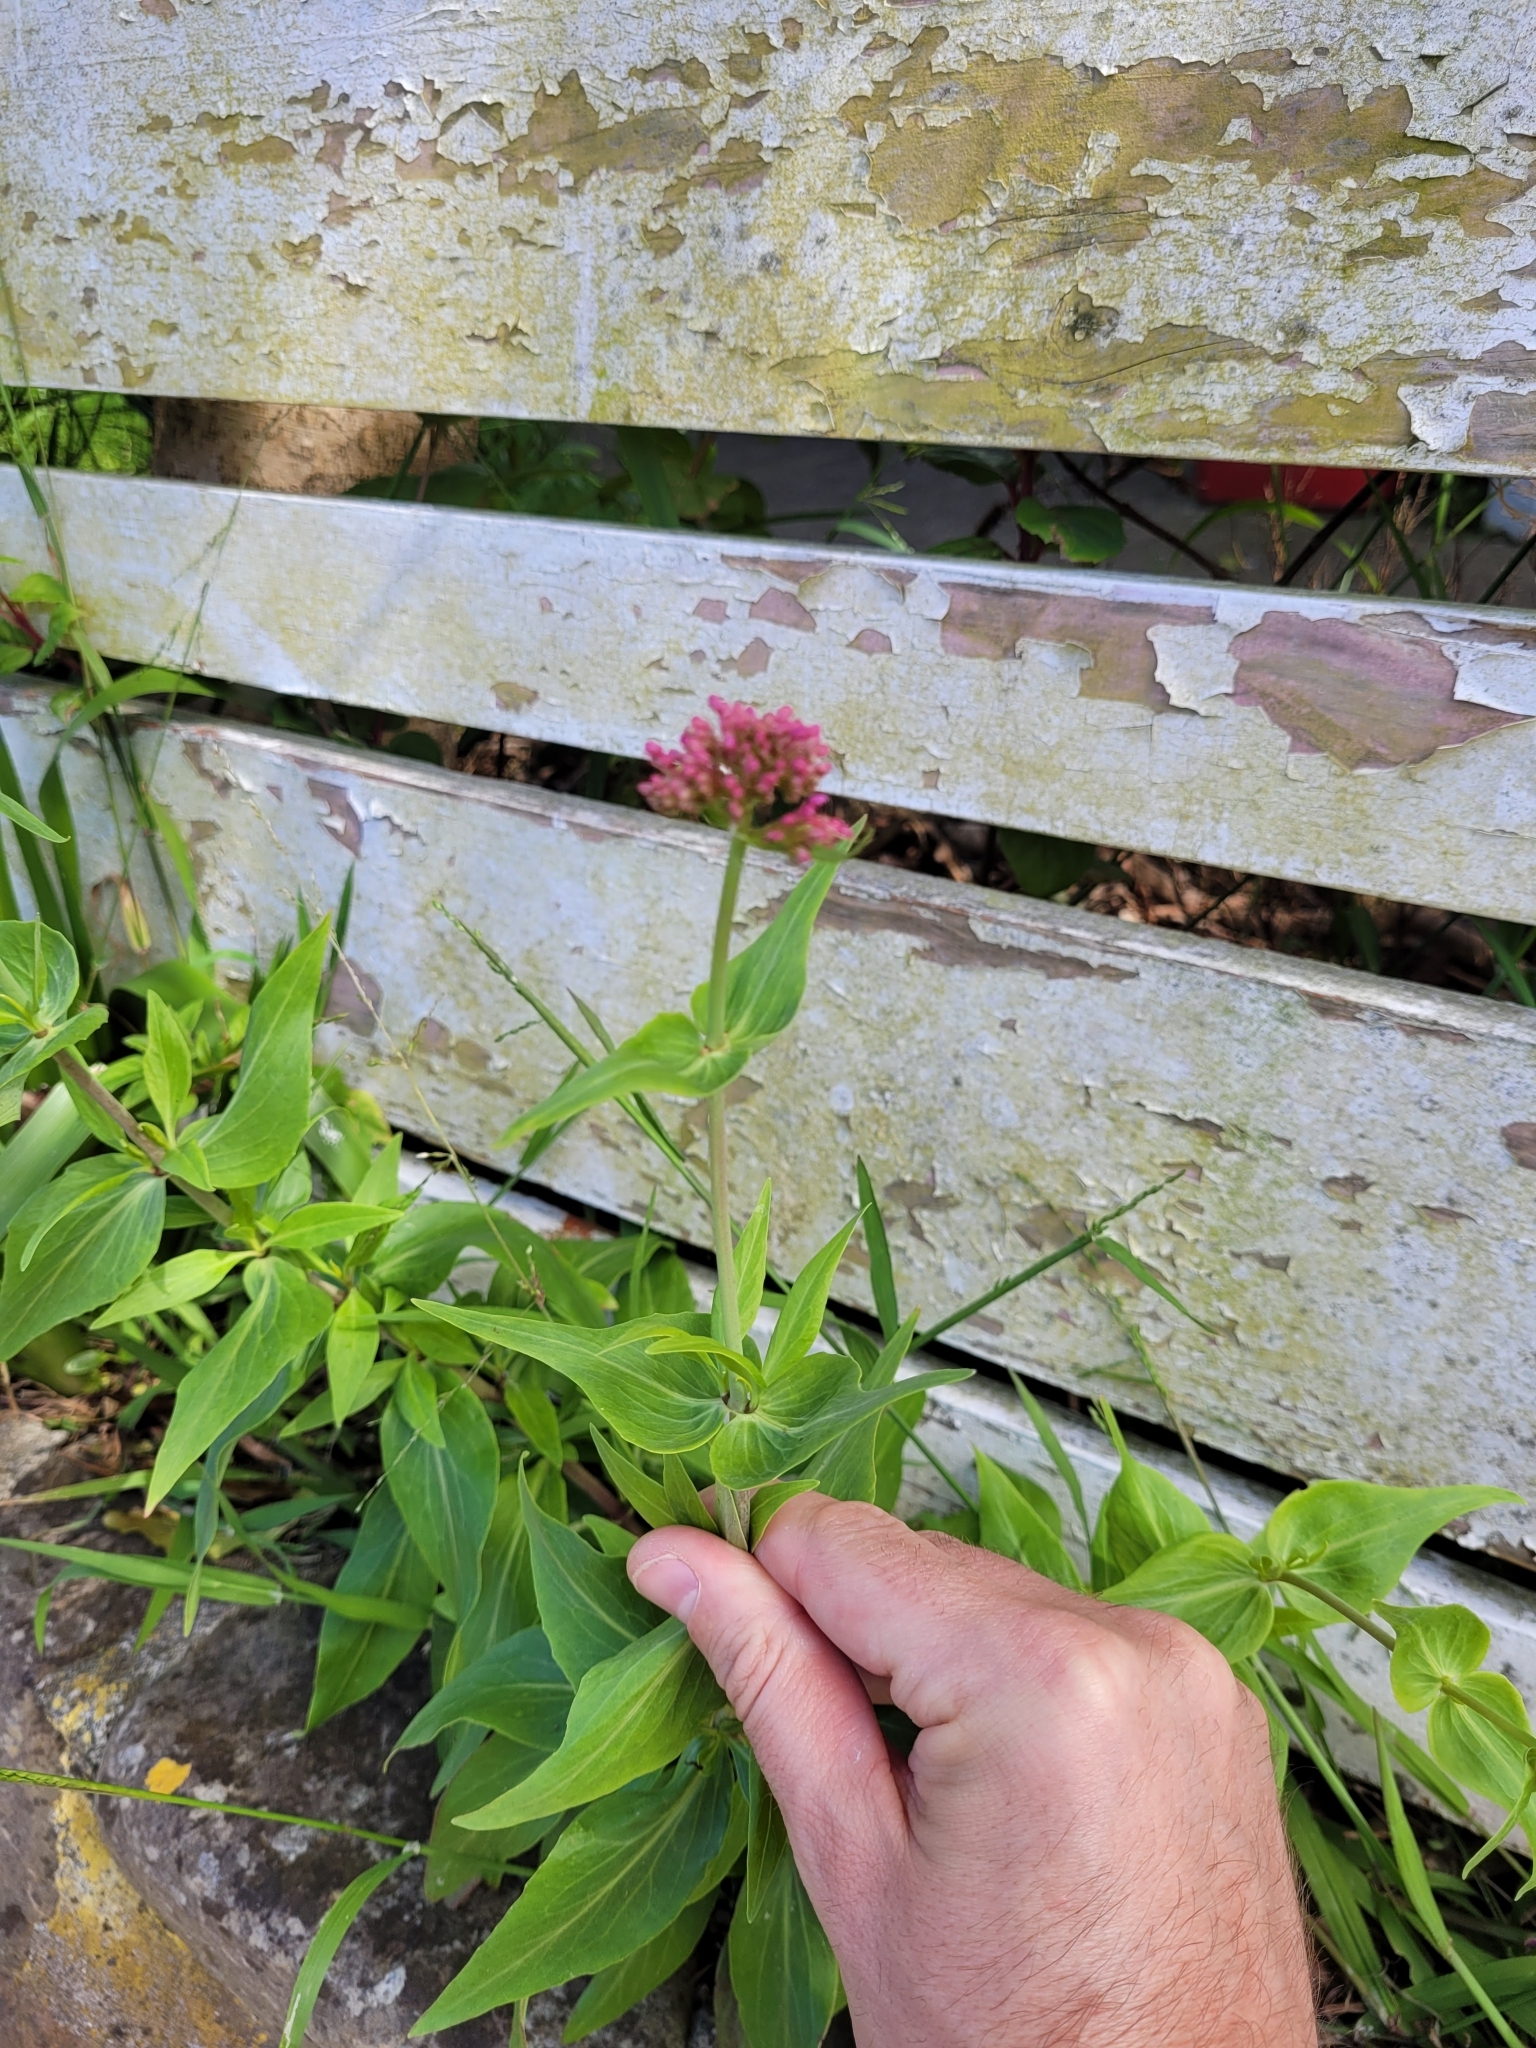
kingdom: Plantae
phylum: Tracheophyta
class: Magnoliopsida
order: Dipsacales
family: Caprifoliaceae
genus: Centranthus
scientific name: Centranthus ruber
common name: Red valerian
